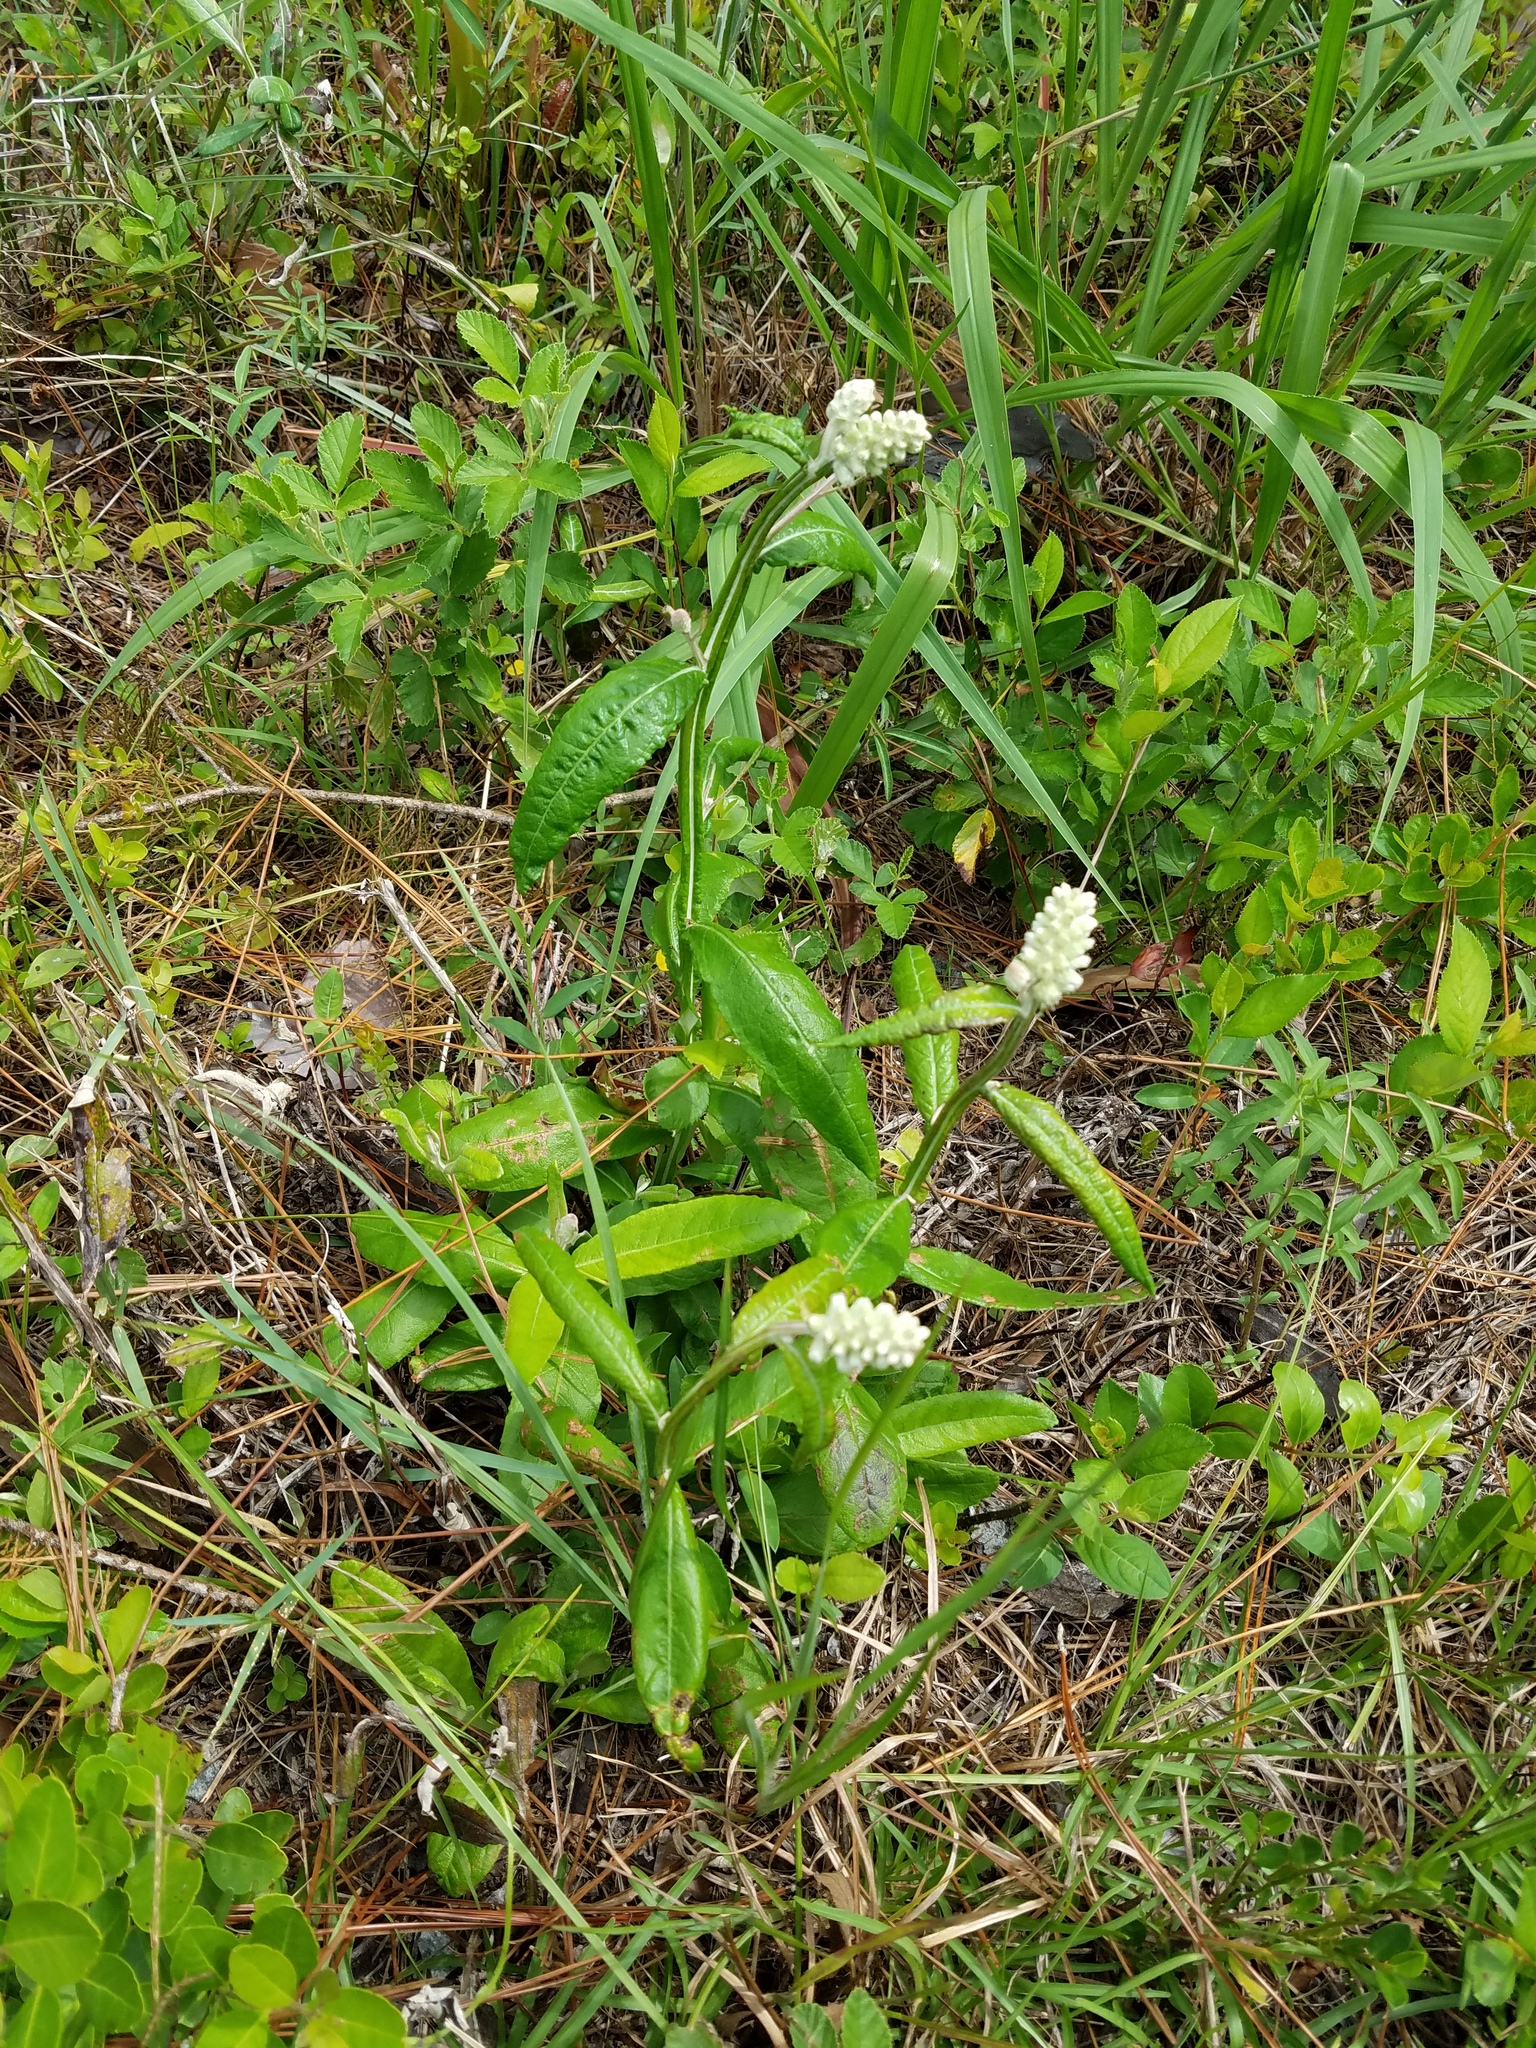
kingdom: Plantae
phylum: Tracheophyta
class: Magnoliopsida
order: Asterales
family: Asteraceae
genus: Pterocaulon
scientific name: Pterocaulon pycnostachyum
